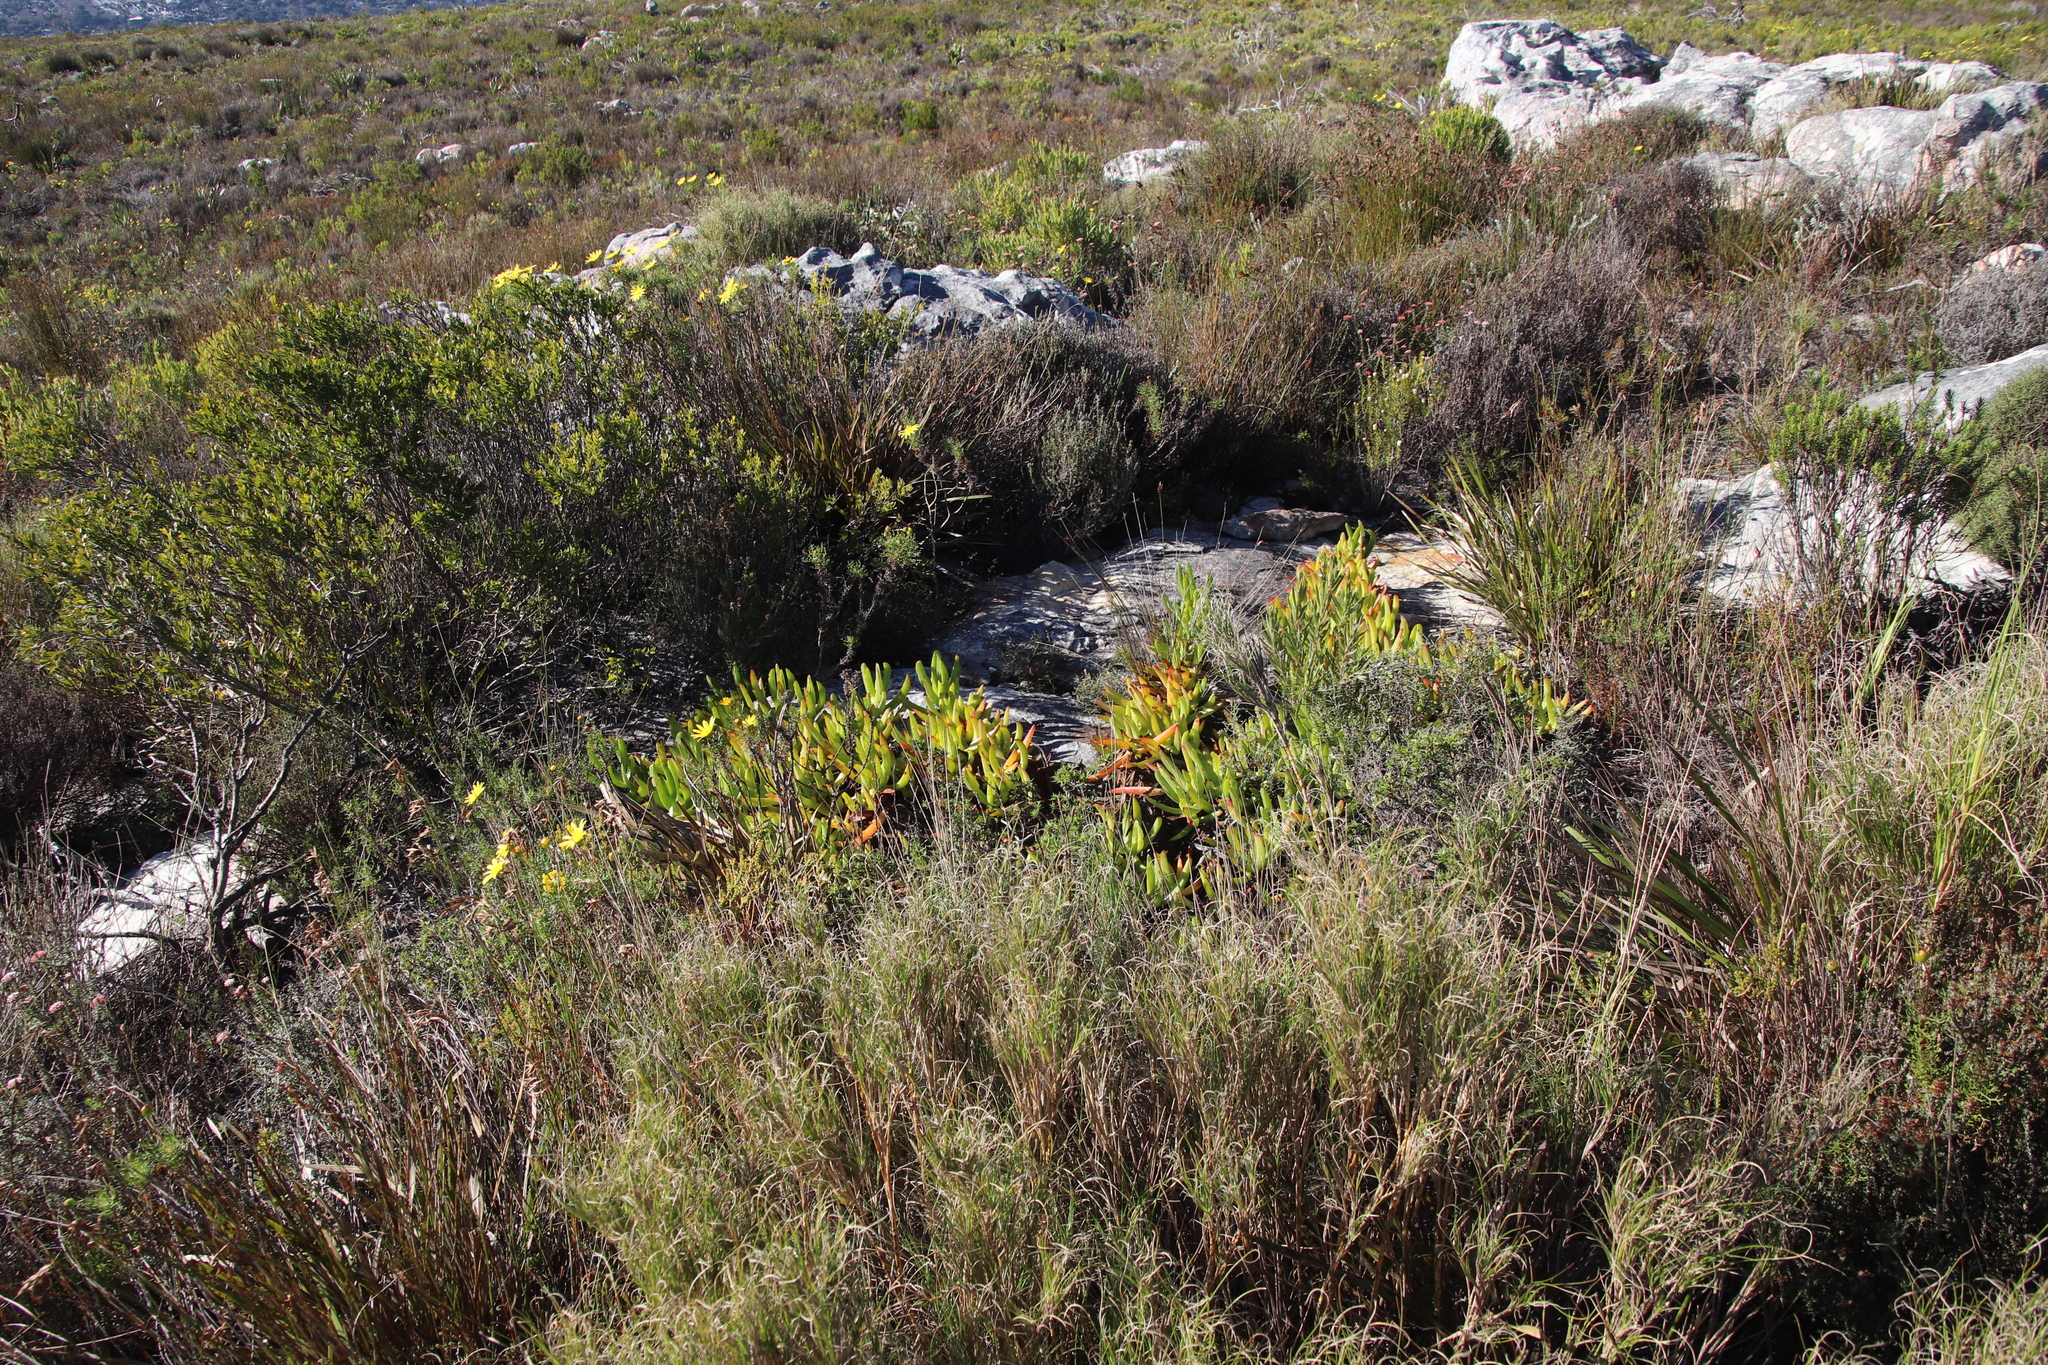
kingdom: Plantae
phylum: Tracheophyta
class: Magnoliopsida
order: Caryophyllales
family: Aizoaceae
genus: Carpobrotus
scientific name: Carpobrotus acinaciformis
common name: Sally-my-handsome
